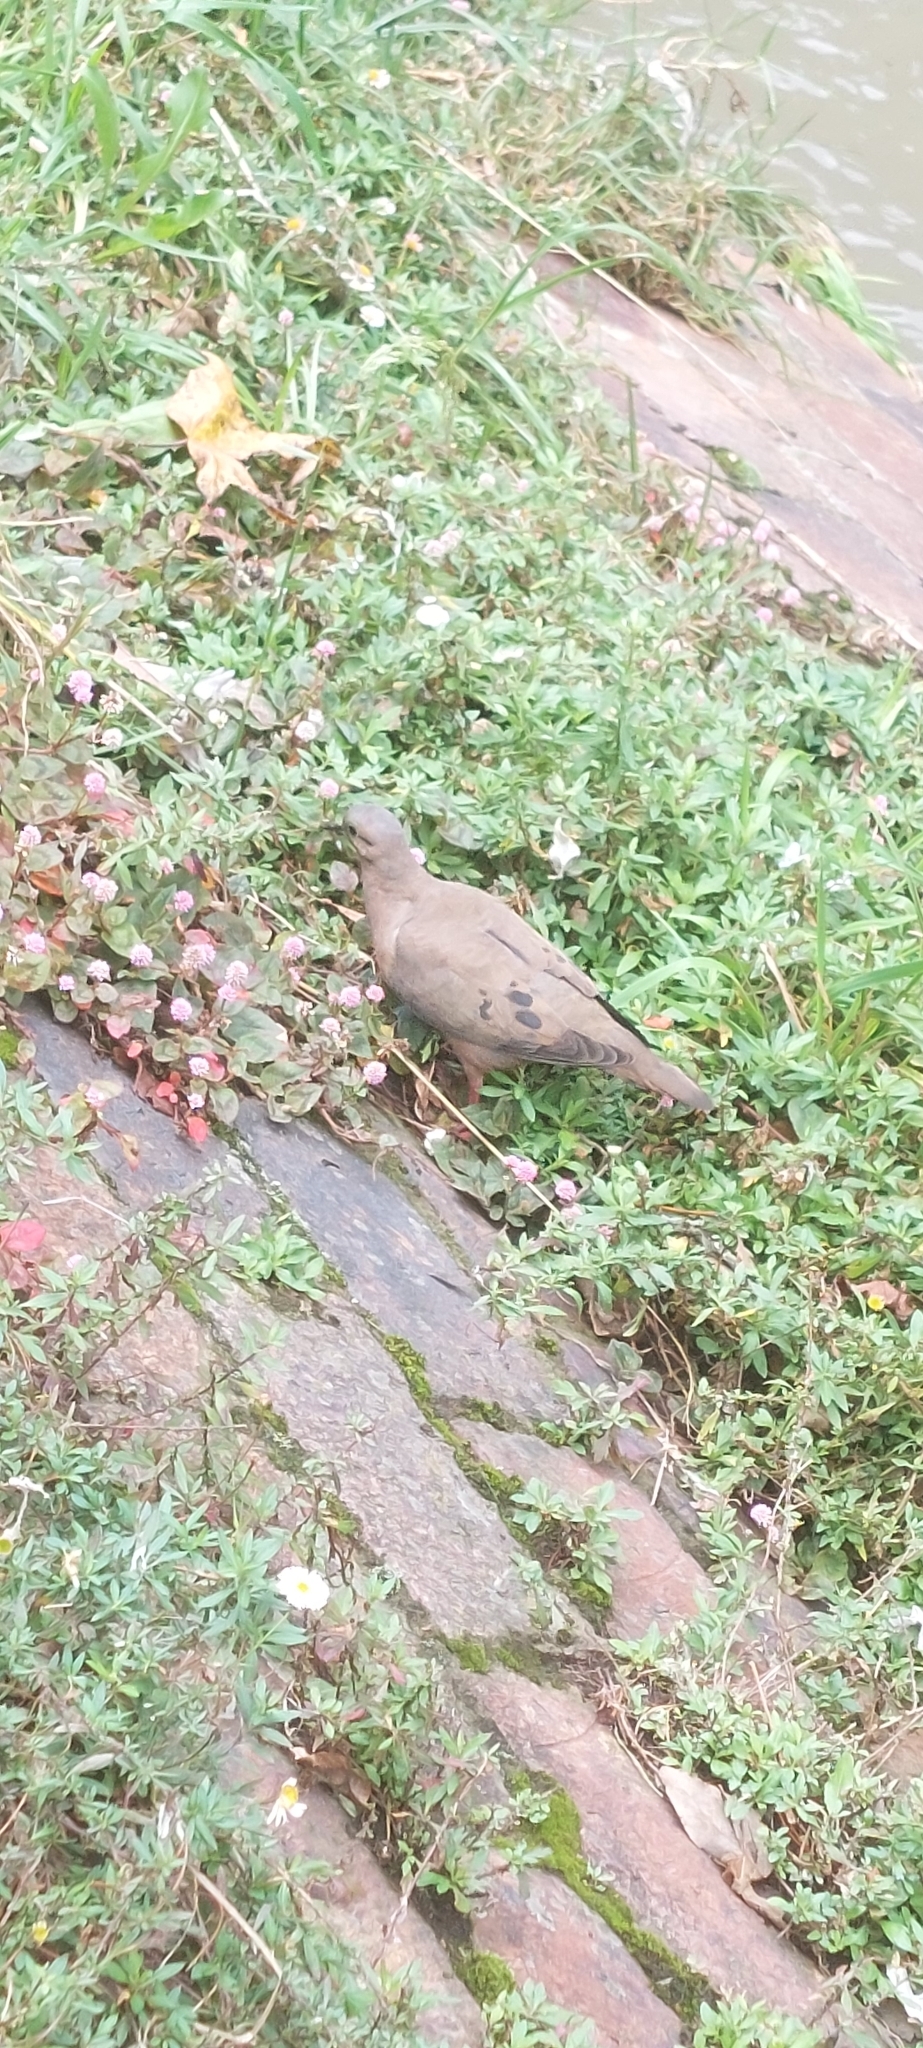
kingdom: Animalia
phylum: Chordata
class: Aves
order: Columbiformes
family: Columbidae
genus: Zenaida
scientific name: Zenaida auriculata
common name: Eared dove
